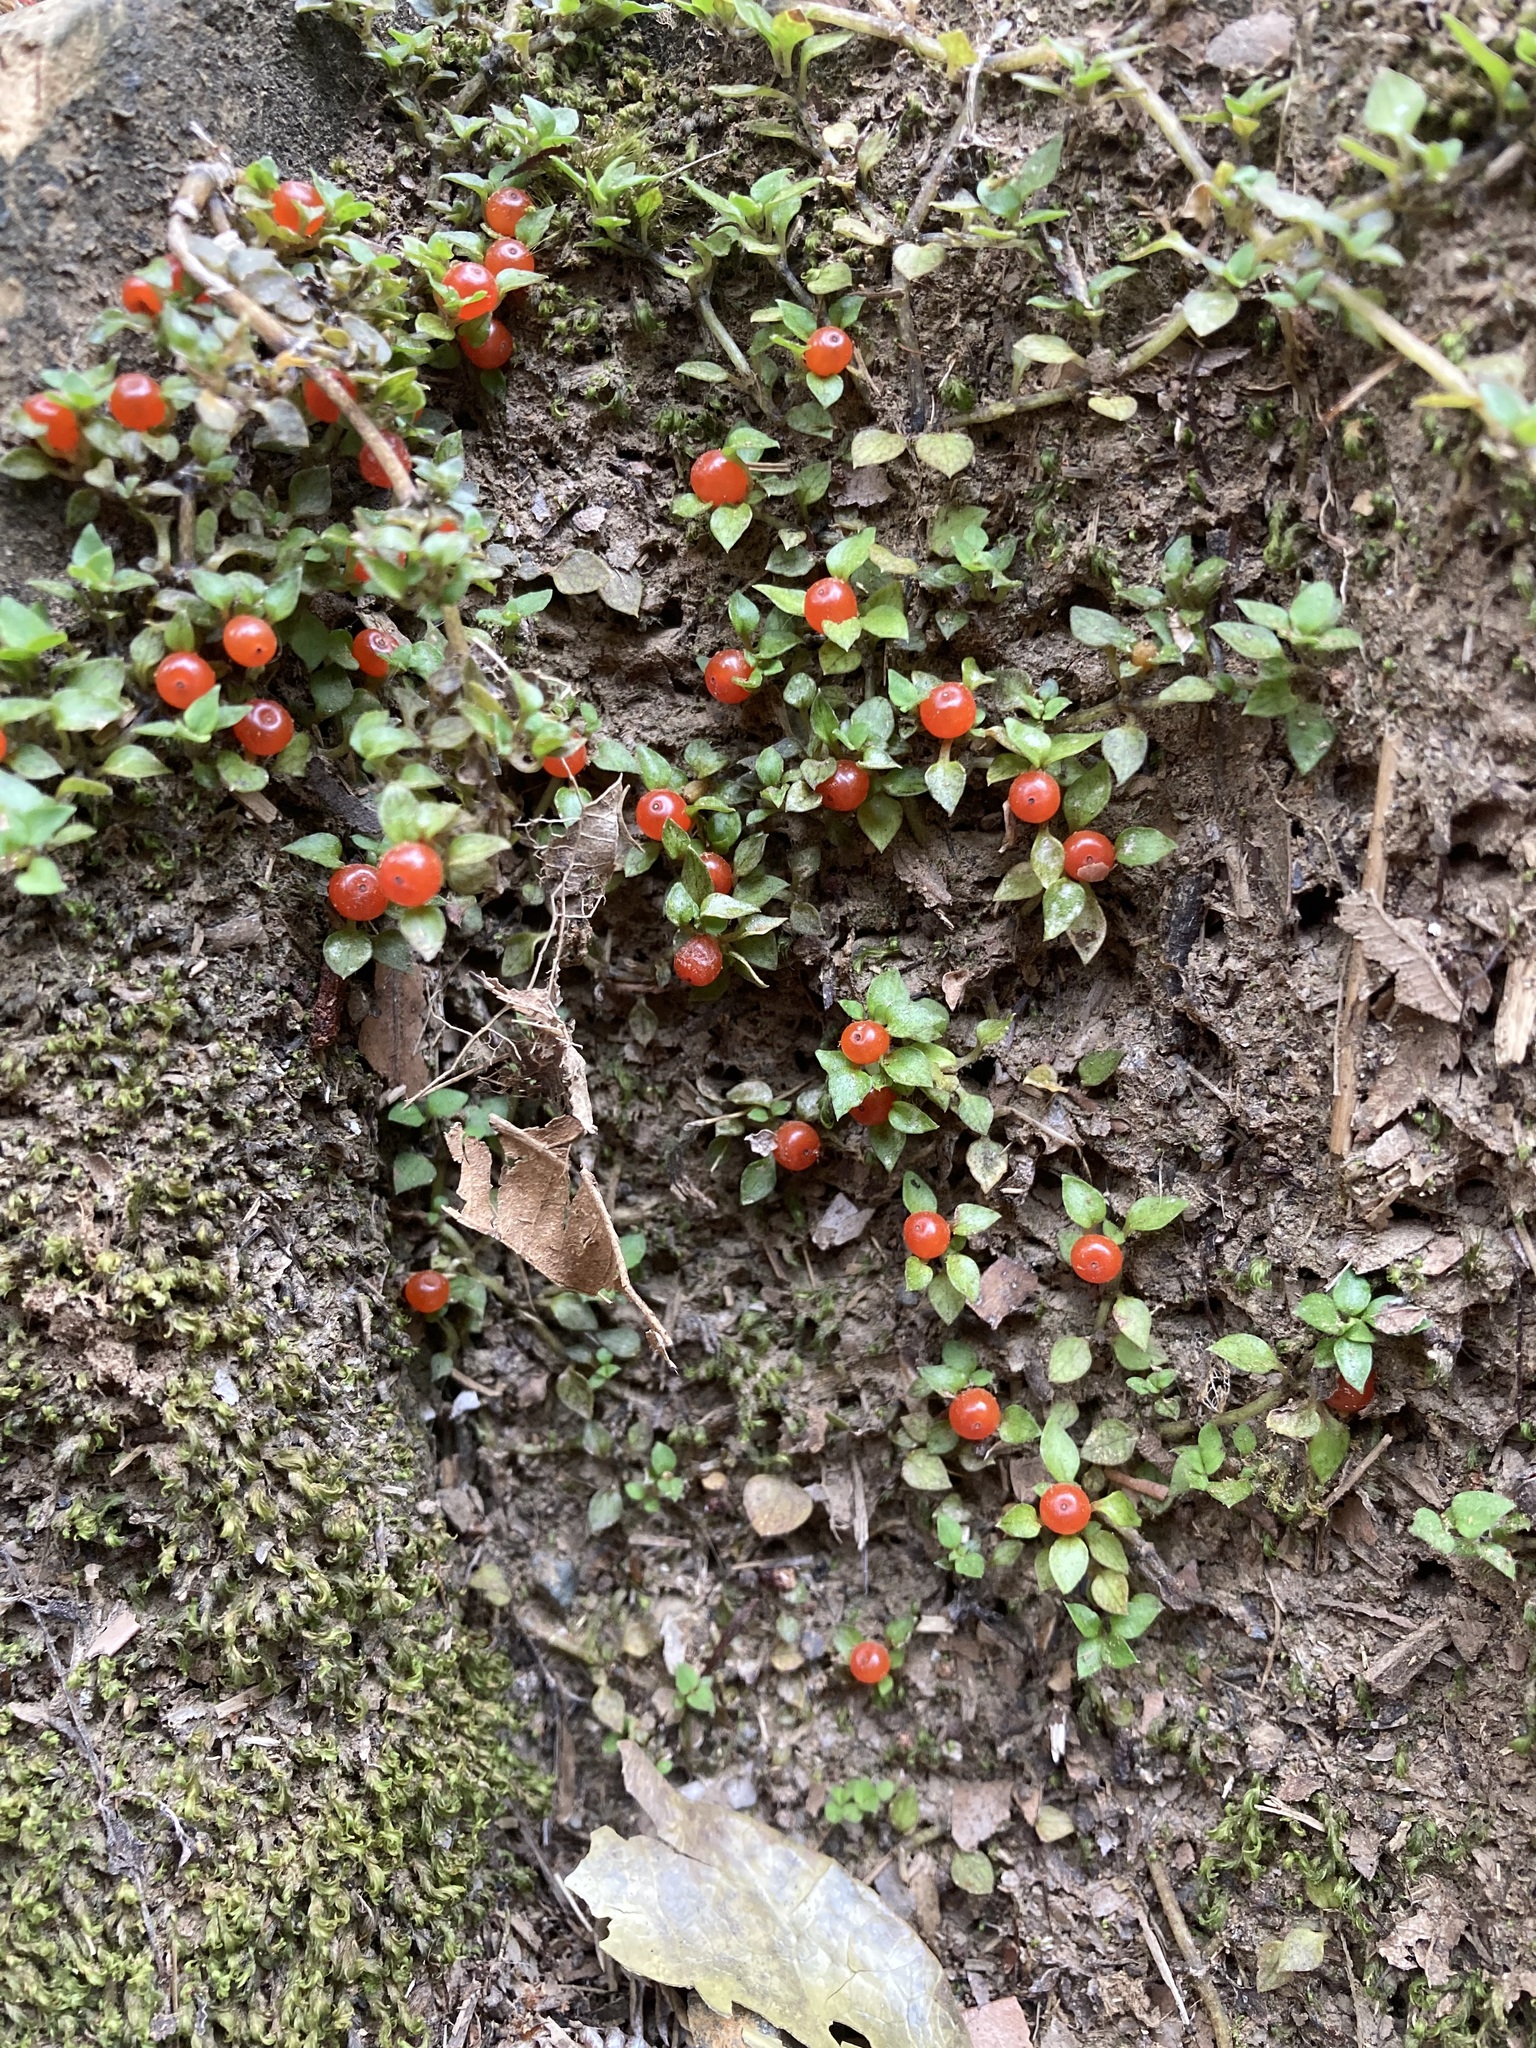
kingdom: Plantae
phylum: Tracheophyta
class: Magnoliopsida
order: Gentianales
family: Rubiaceae
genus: Nertera
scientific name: Nertera granadensis
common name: Beadplant
